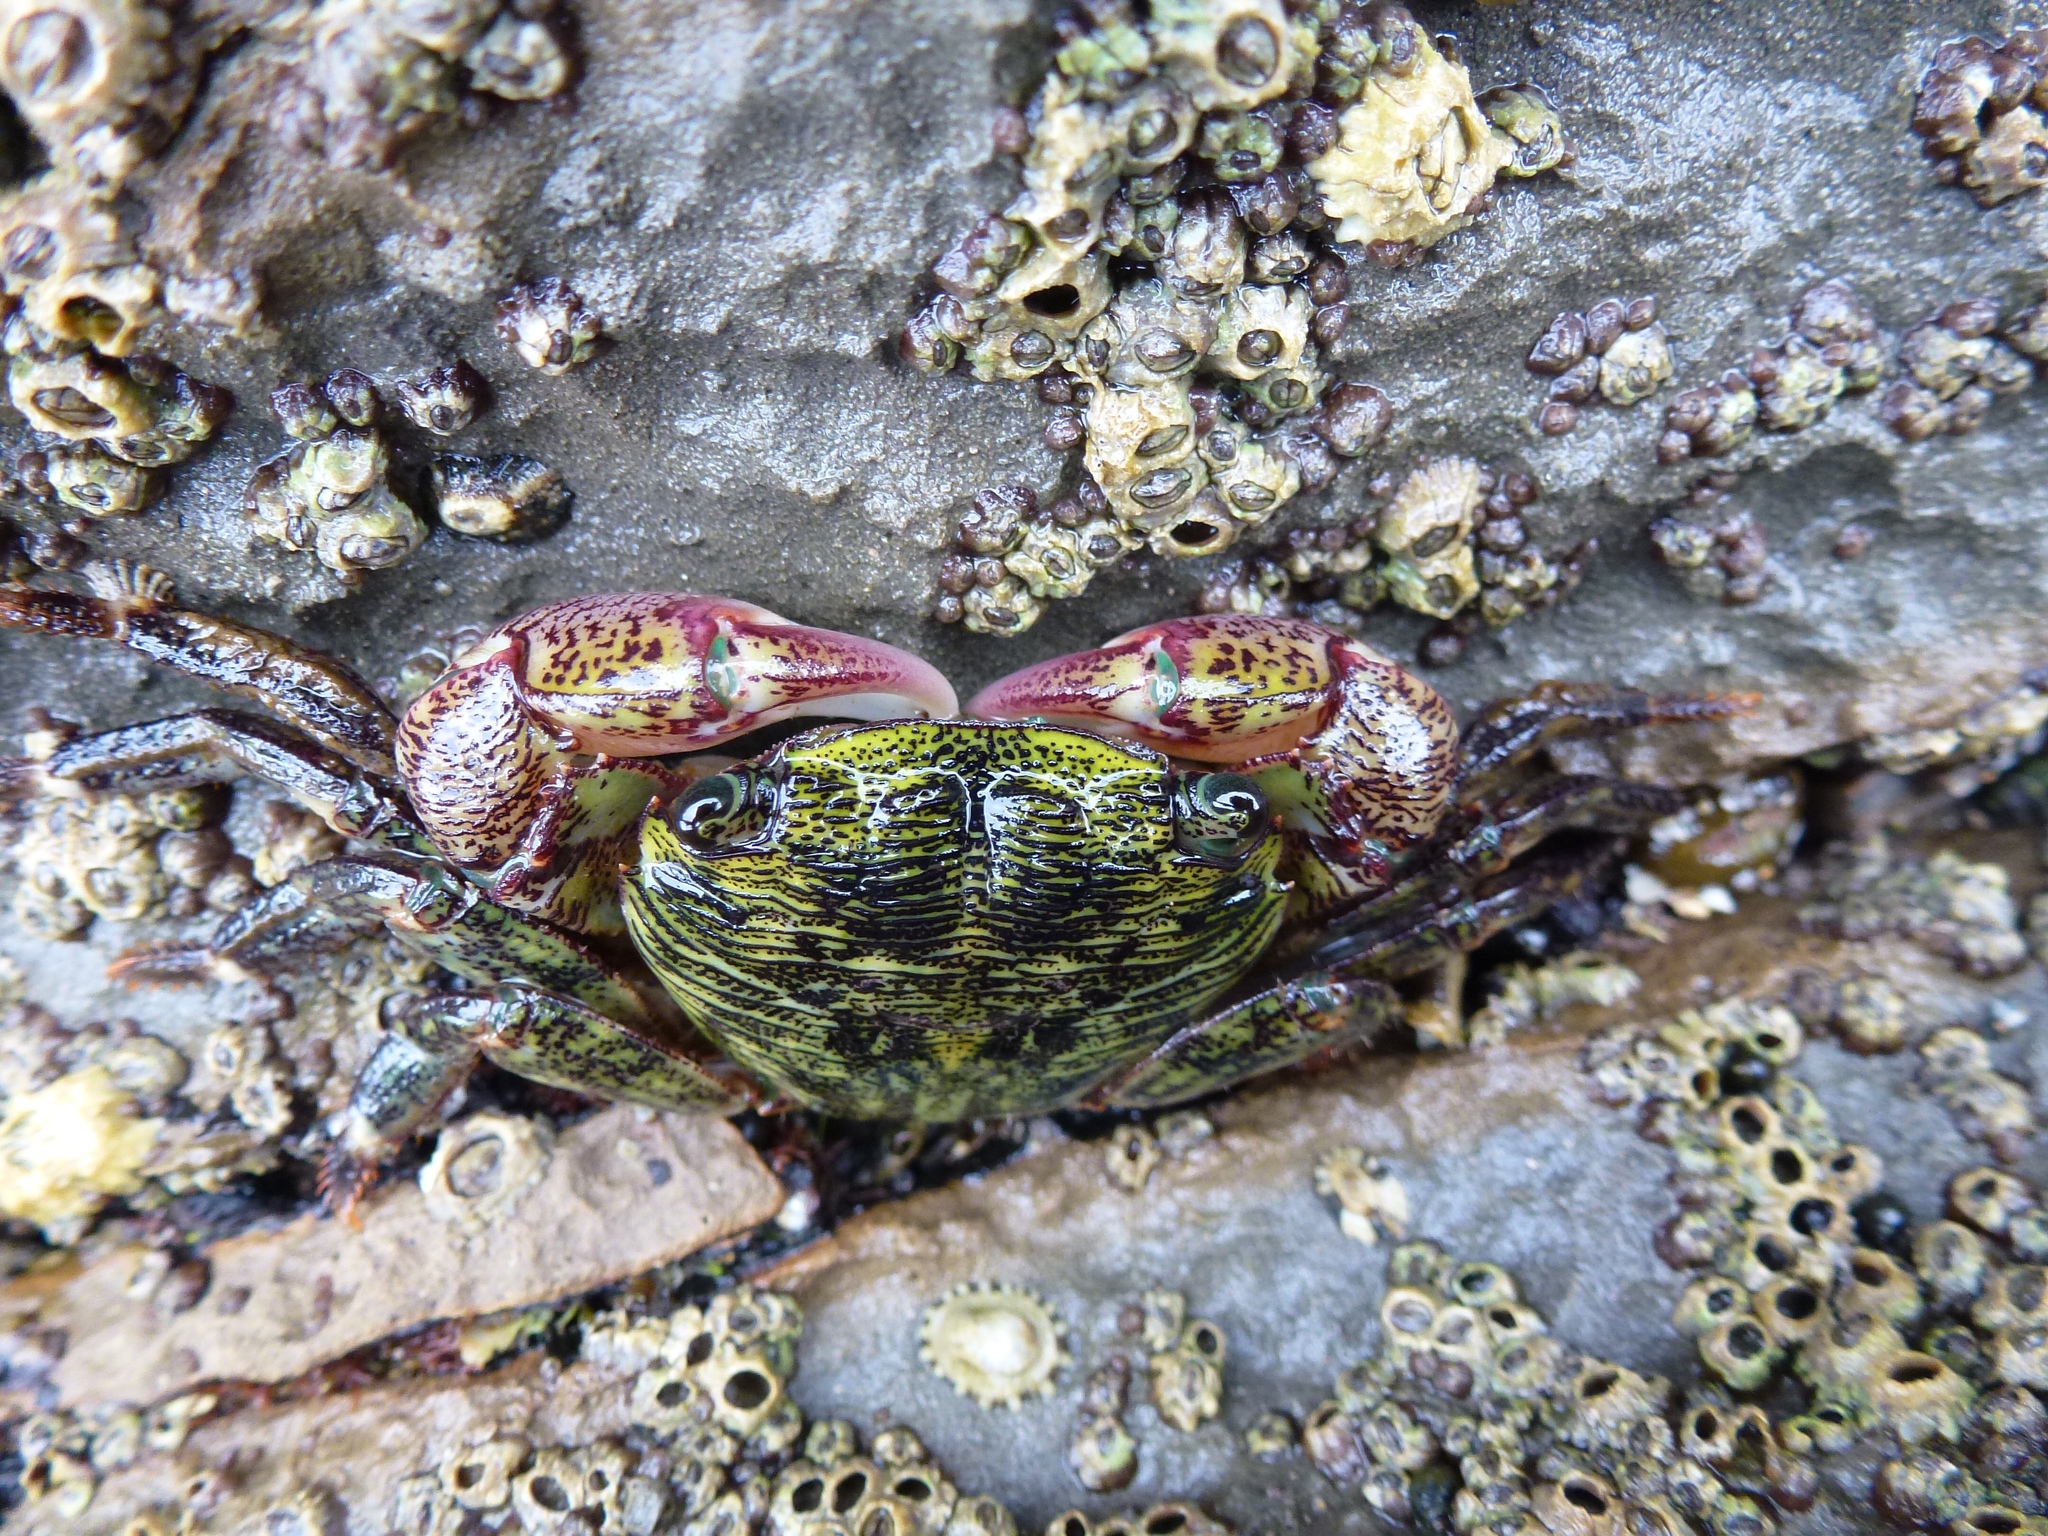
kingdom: Animalia
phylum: Arthropoda
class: Malacostraca
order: Decapoda
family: Grapsidae
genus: Pachygrapsus
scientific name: Pachygrapsus crassipes
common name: Striped shore crab
